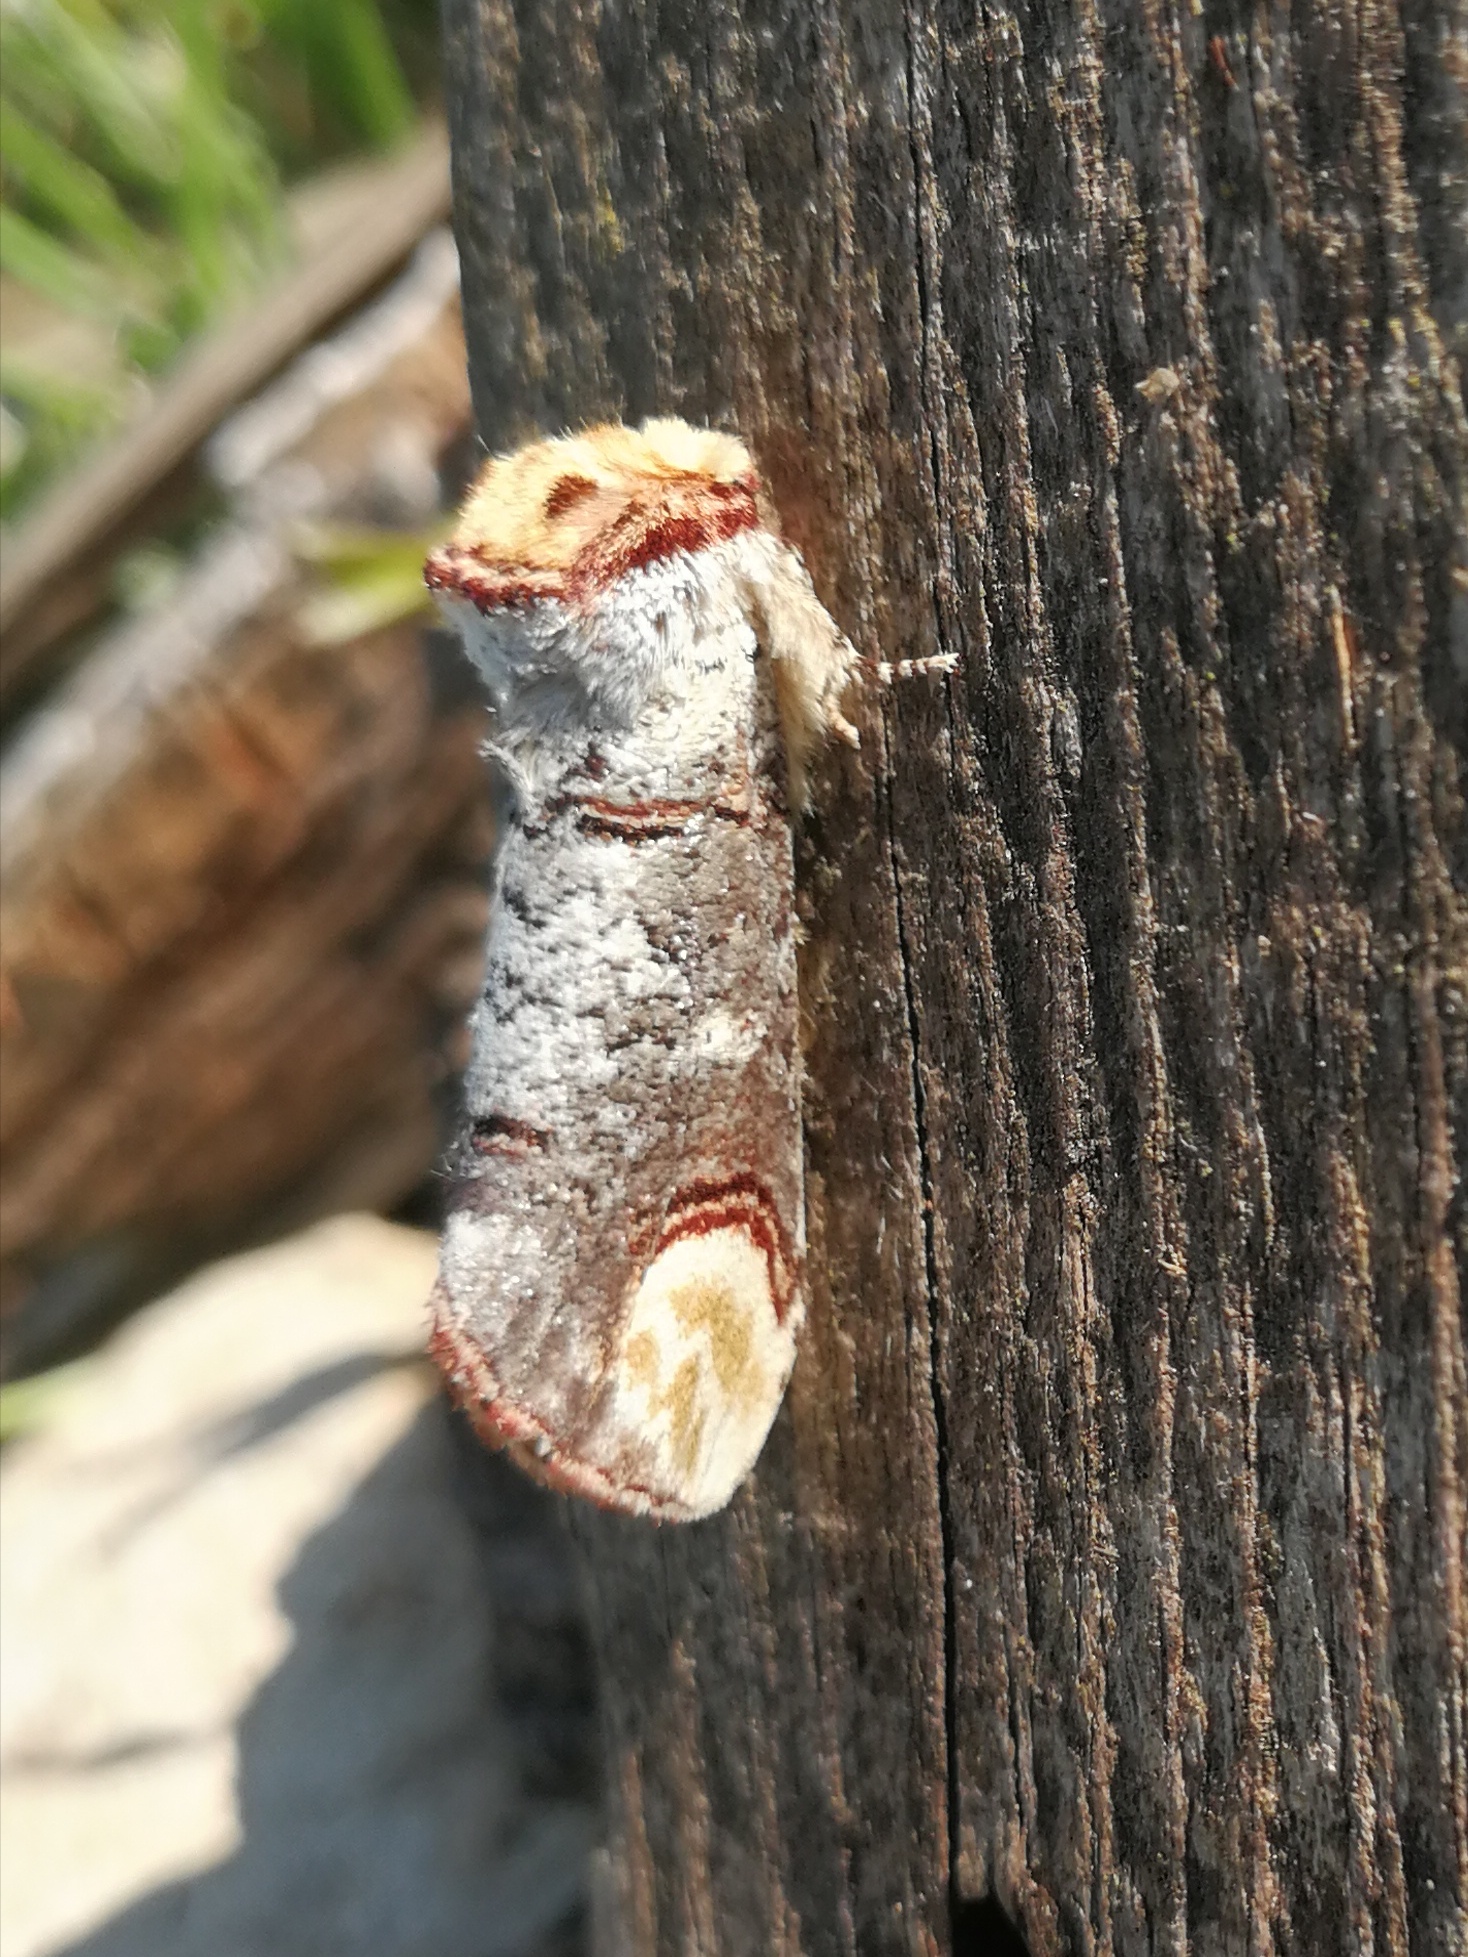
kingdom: Animalia
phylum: Arthropoda
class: Insecta
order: Lepidoptera
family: Notodontidae
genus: Phalera
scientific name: Phalera bucephala
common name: Buff-tip
